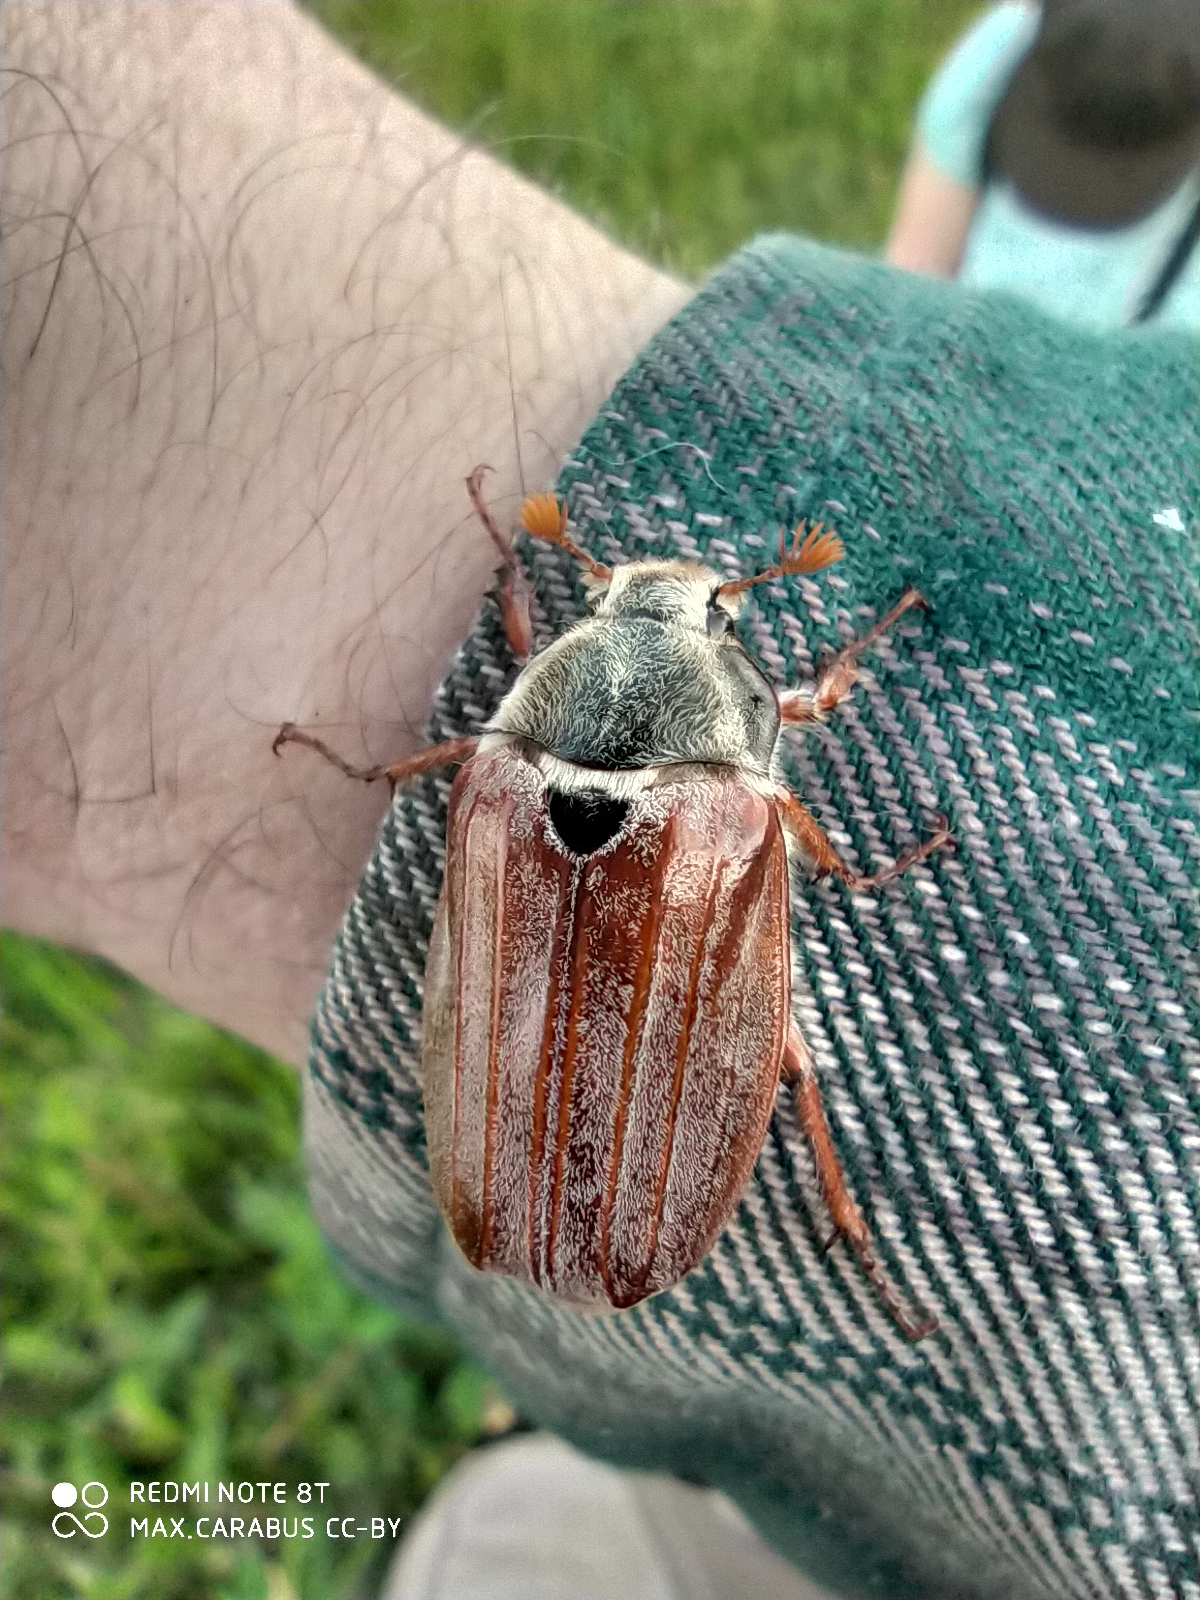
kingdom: Animalia
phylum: Arthropoda
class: Insecta
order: Coleoptera
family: Scarabaeidae
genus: Melolontha
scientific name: Melolontha melolontha
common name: Cockchafer maybeetle
